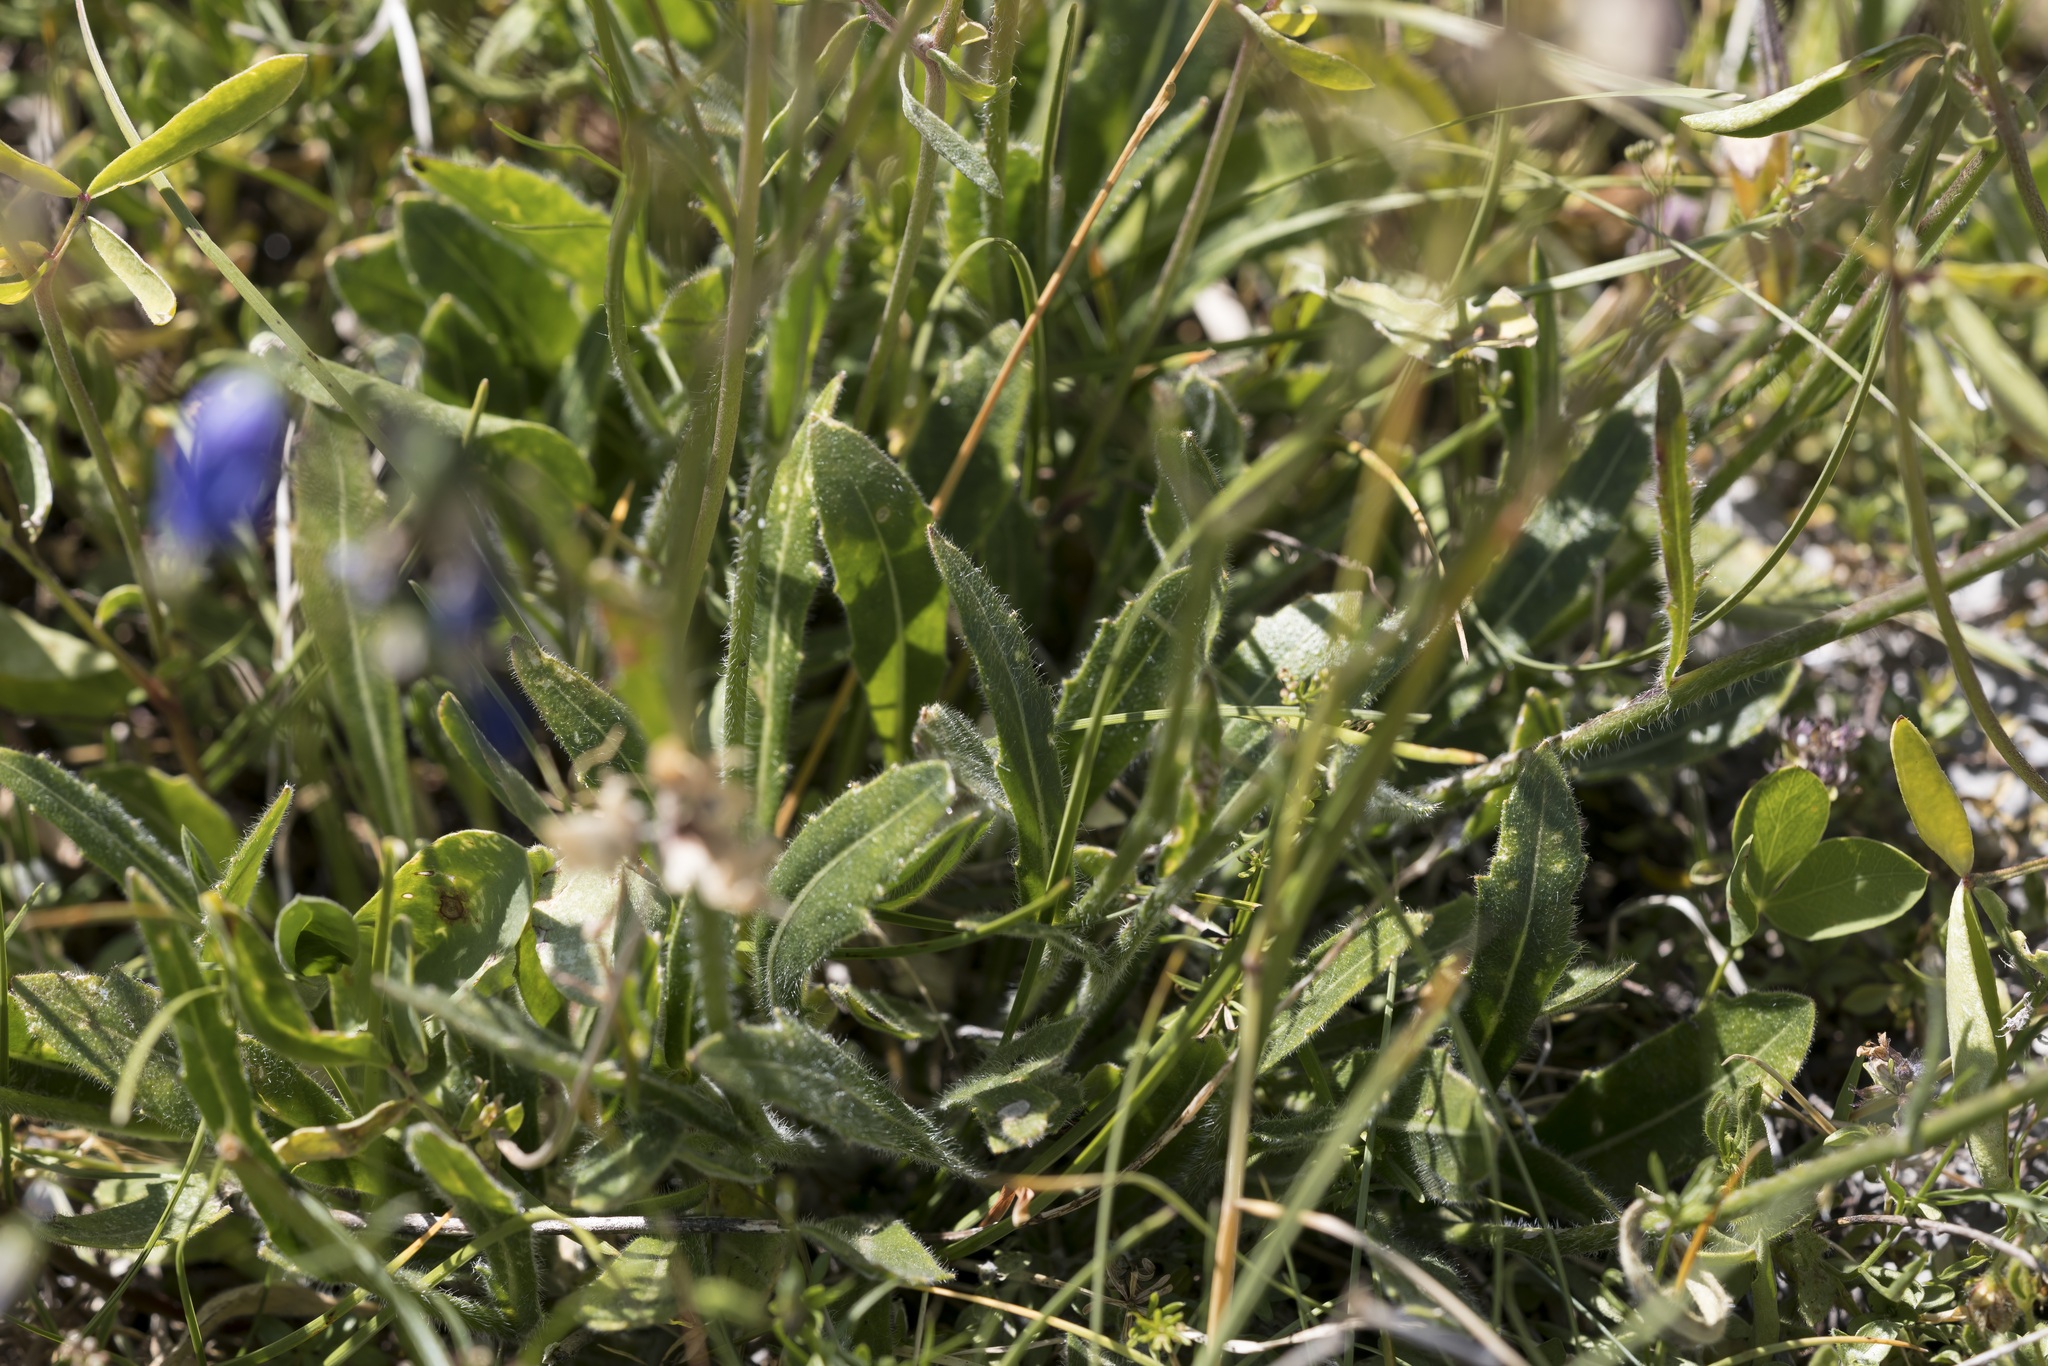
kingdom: Plantae
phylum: Tracheophyta
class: Magnoliopsida
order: Brassicales
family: Brassicaceae
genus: Biscutella
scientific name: Biscutella laevigata
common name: Buckler mustard
